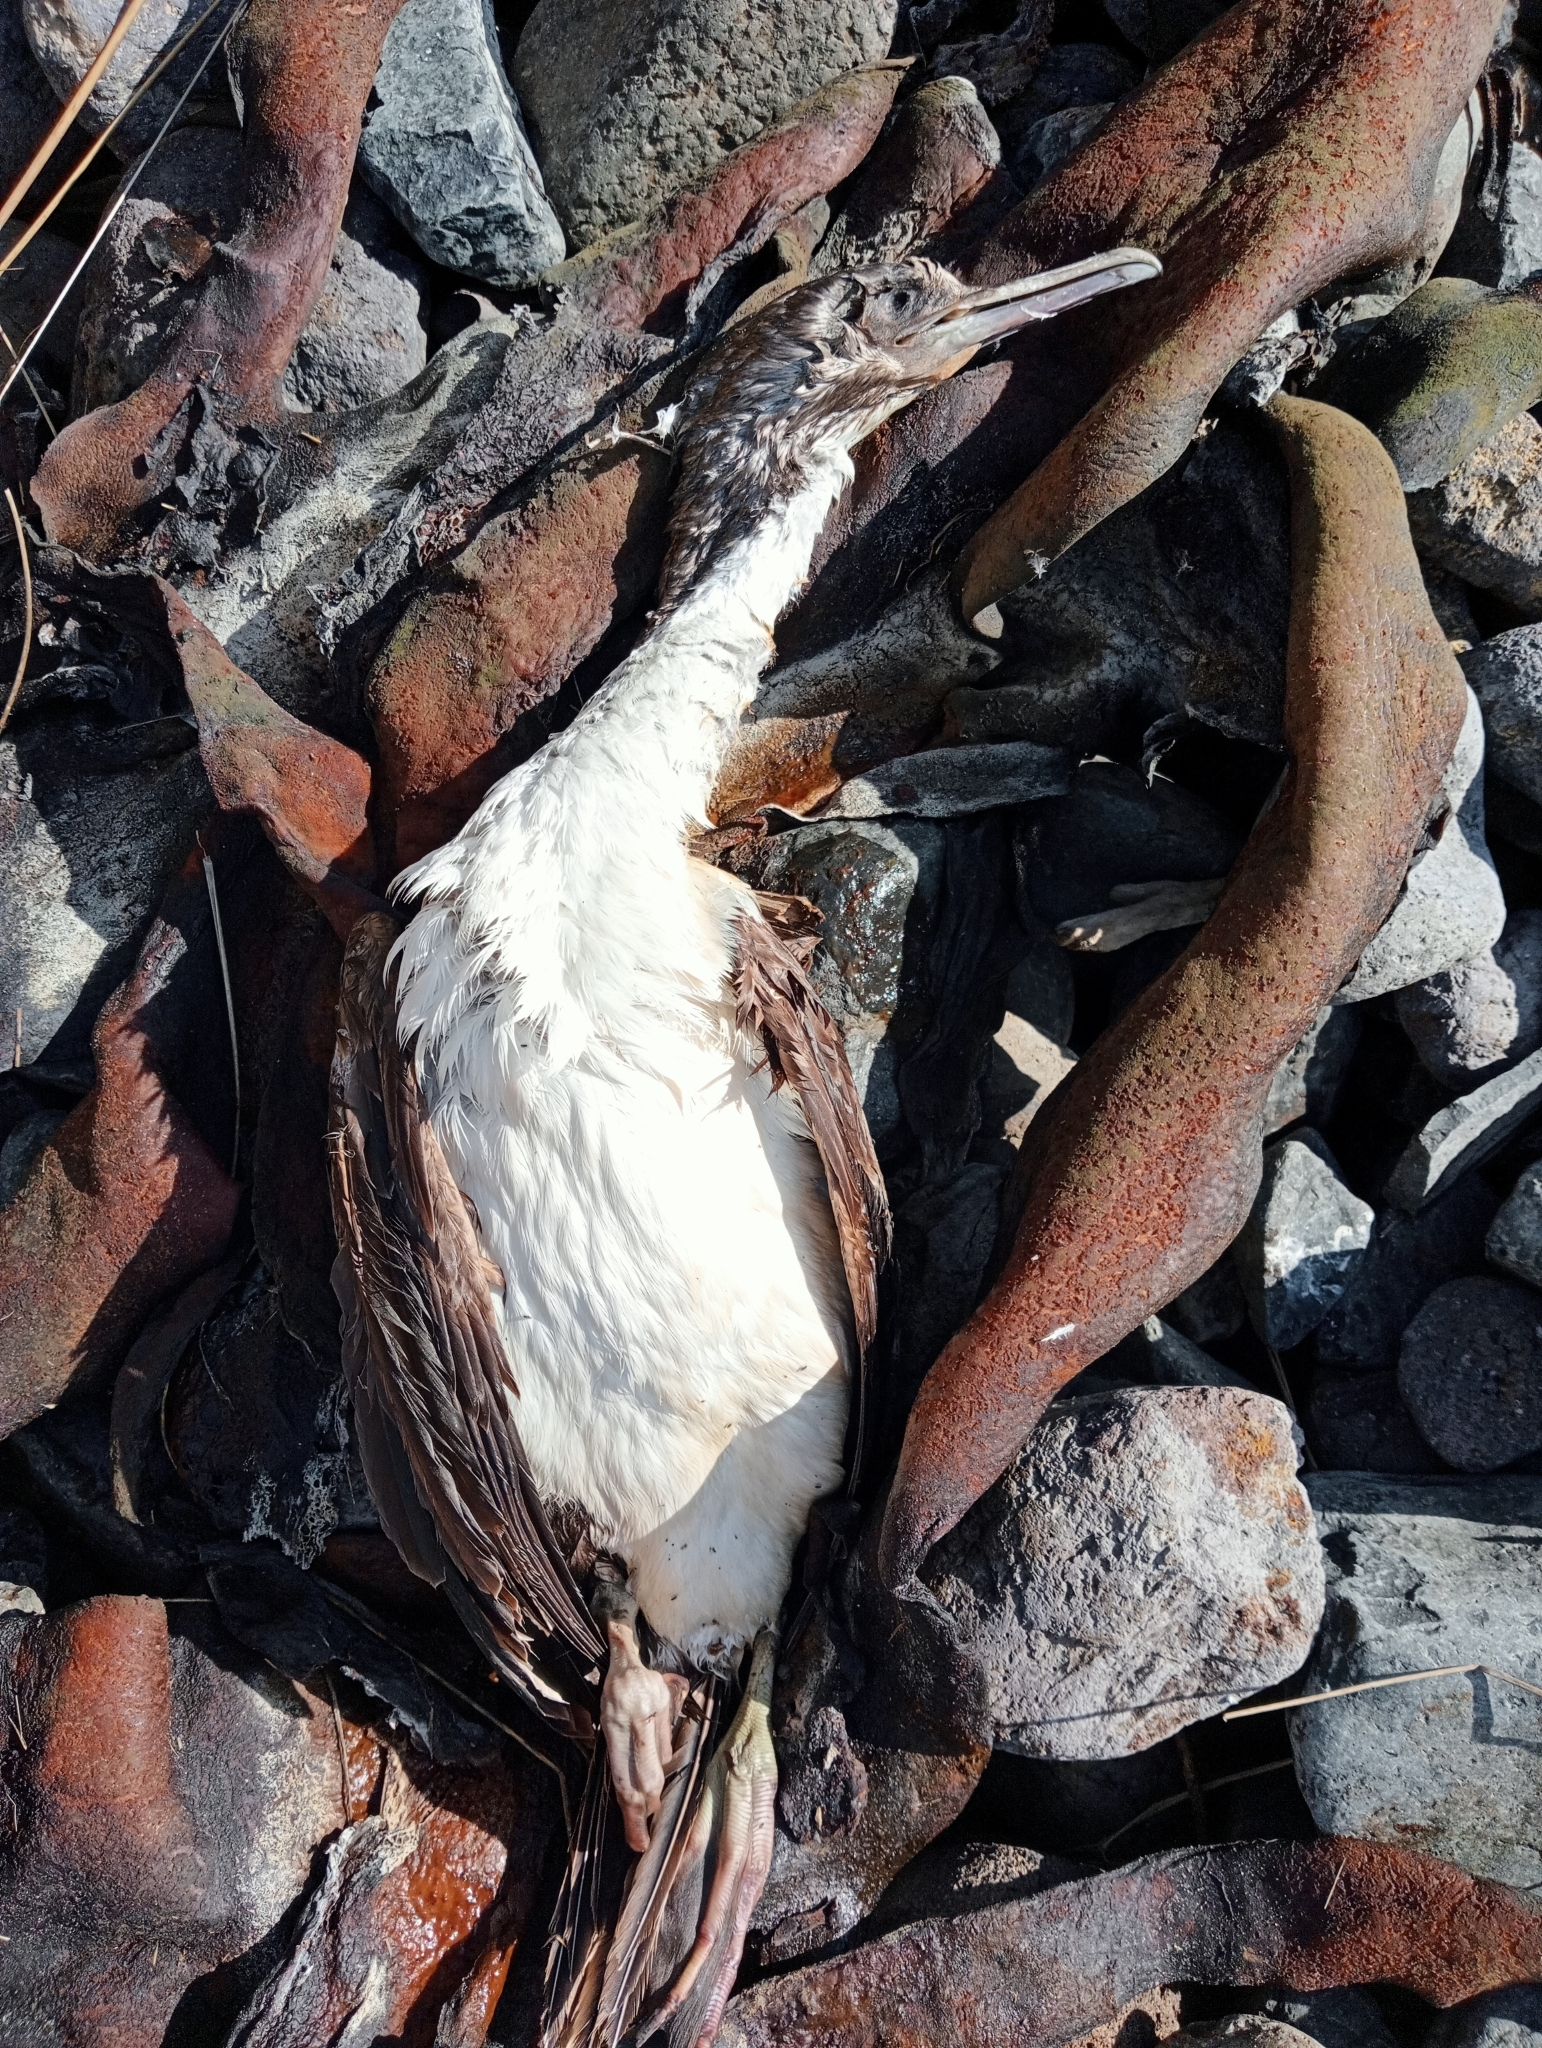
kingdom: Animalia
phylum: Chordata
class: Aves
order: Suliformes
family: Phalacrocoracidae
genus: Leucocarbo
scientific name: Leucocarbo chalconotus
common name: Stewart shag
